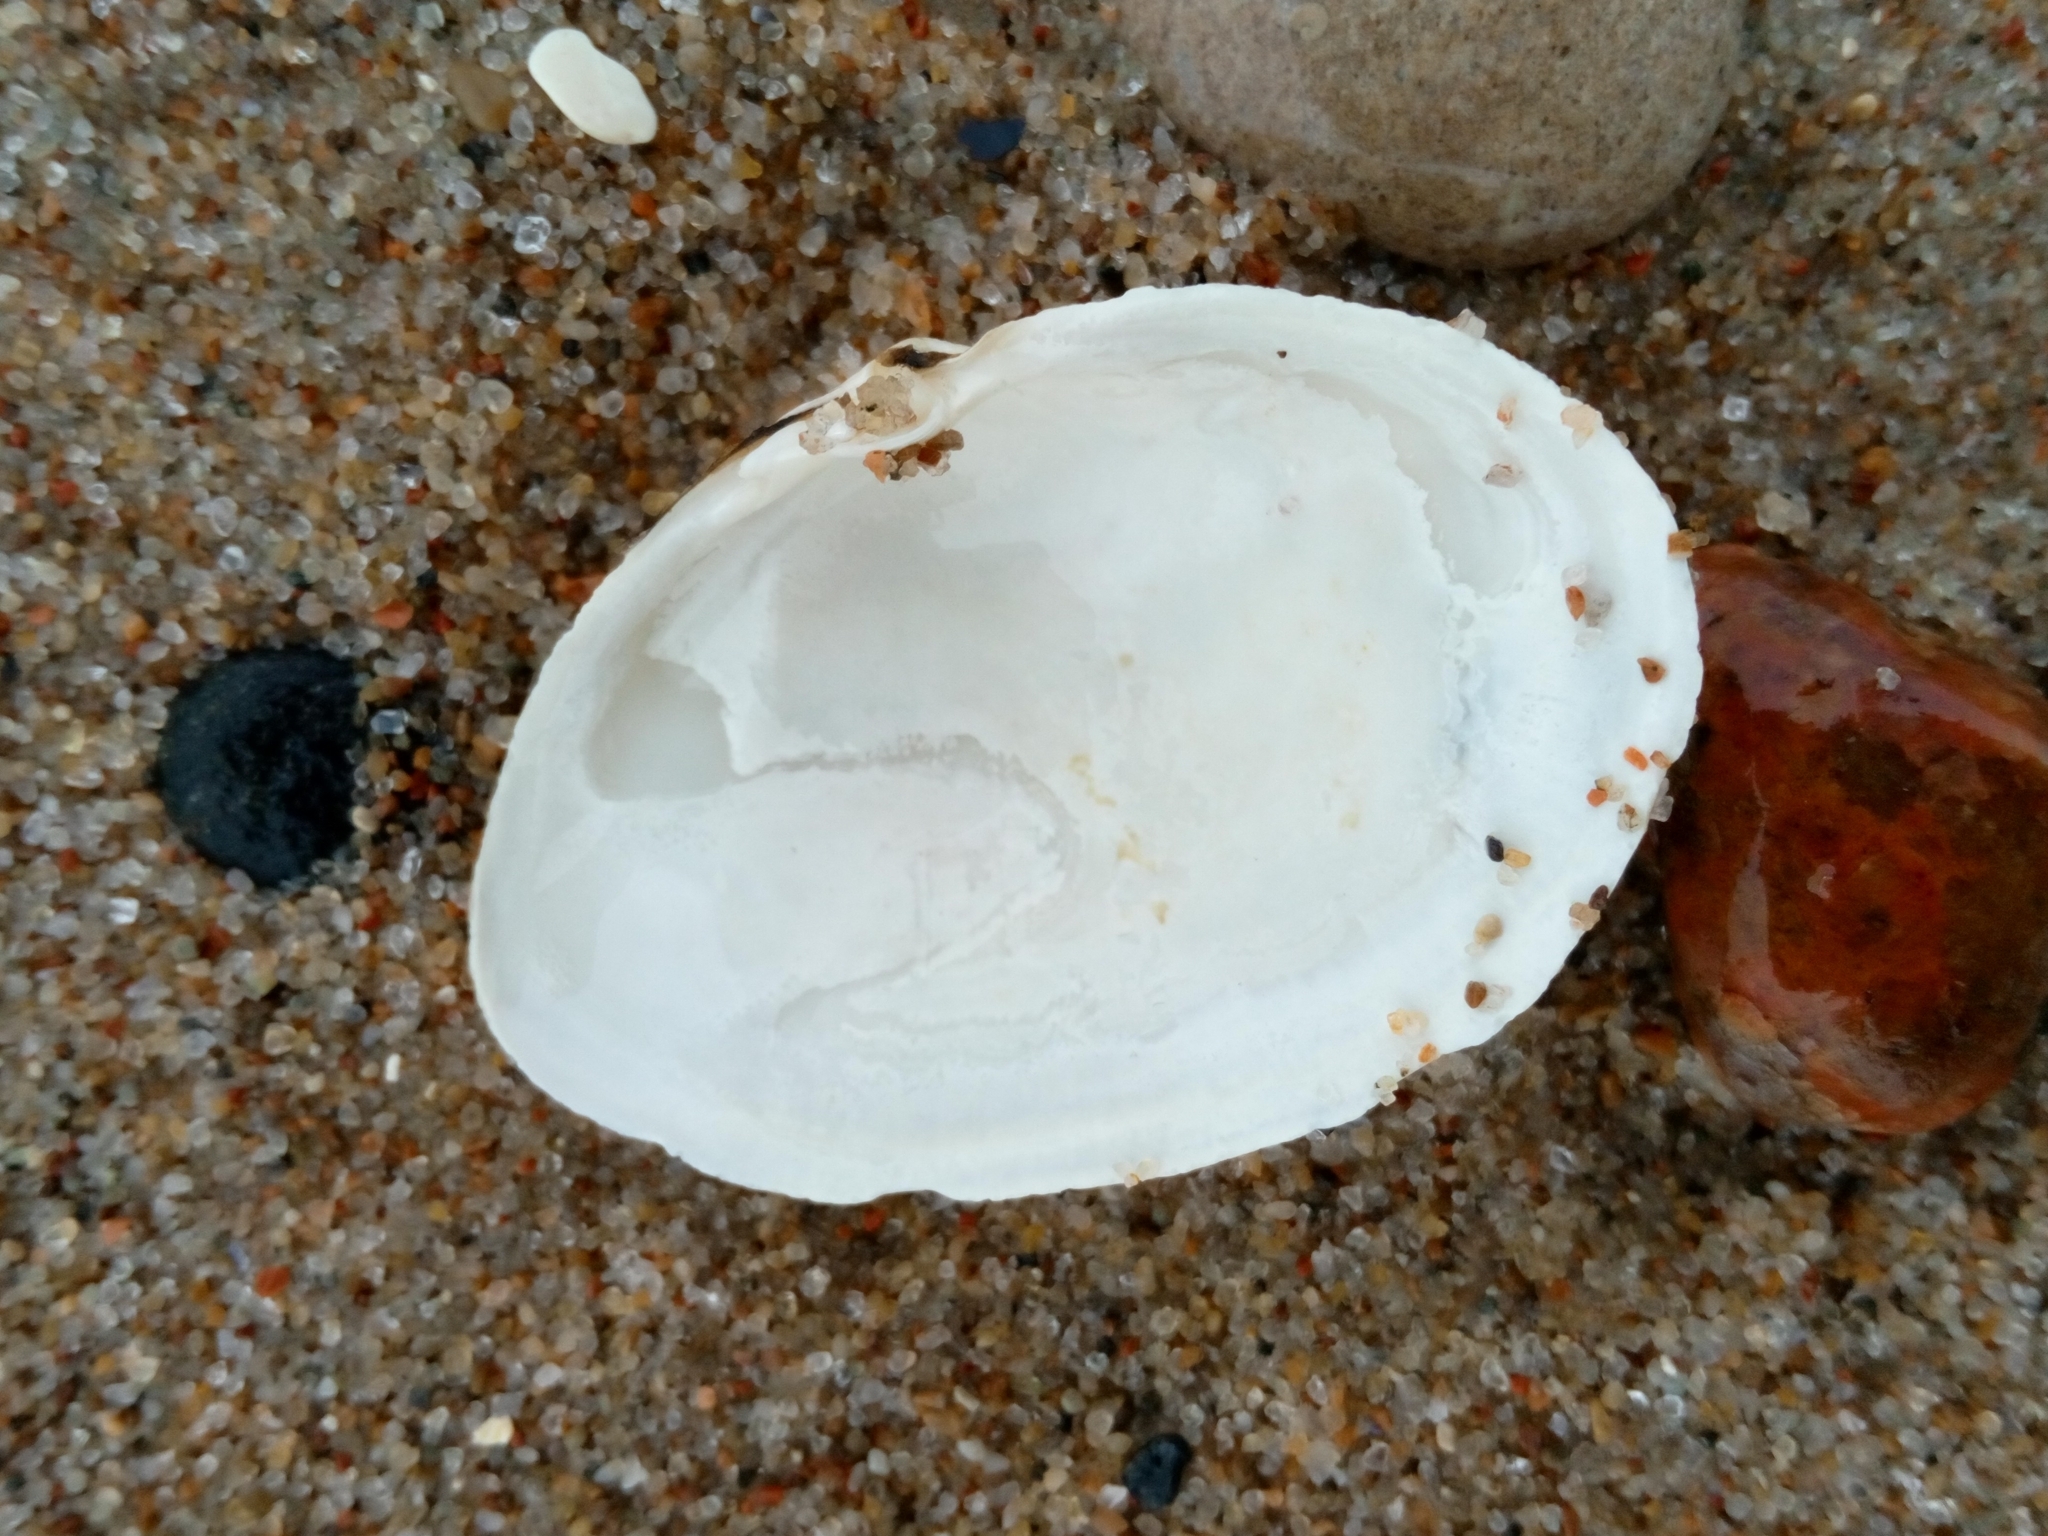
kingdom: Animalia
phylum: Mollusca
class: Bivalvia
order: Myida
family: Myidae
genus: Mya
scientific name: Mya arenaria
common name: Soft-shelled clam
